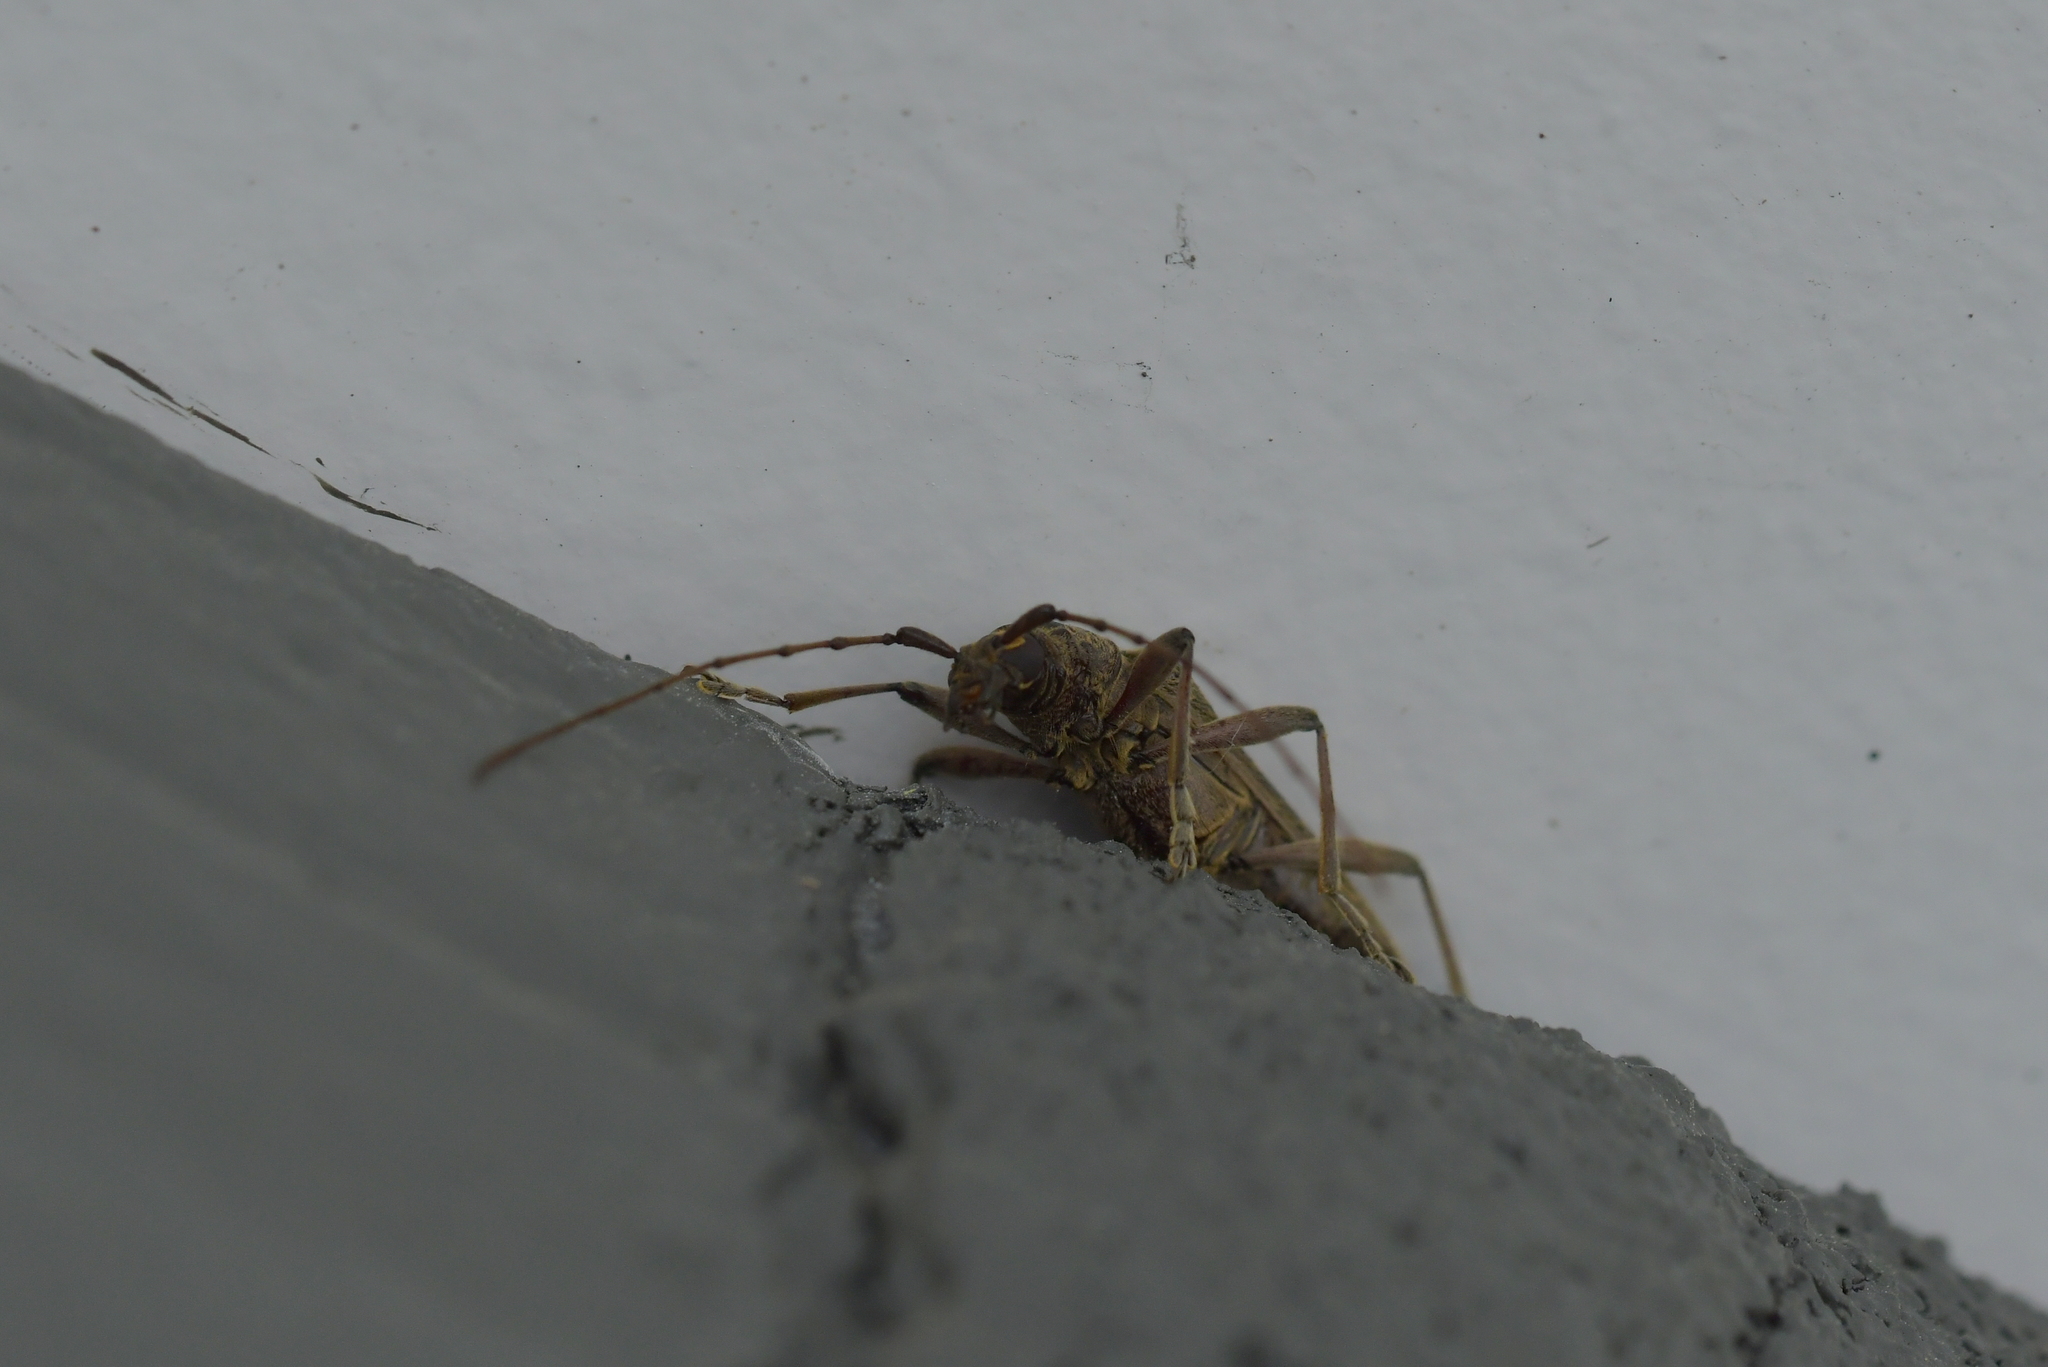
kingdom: Animalia
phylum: Arthropoda
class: Insecta
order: Coleoptera
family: Cerambycidae
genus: Oemona
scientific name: Oemona hirta
